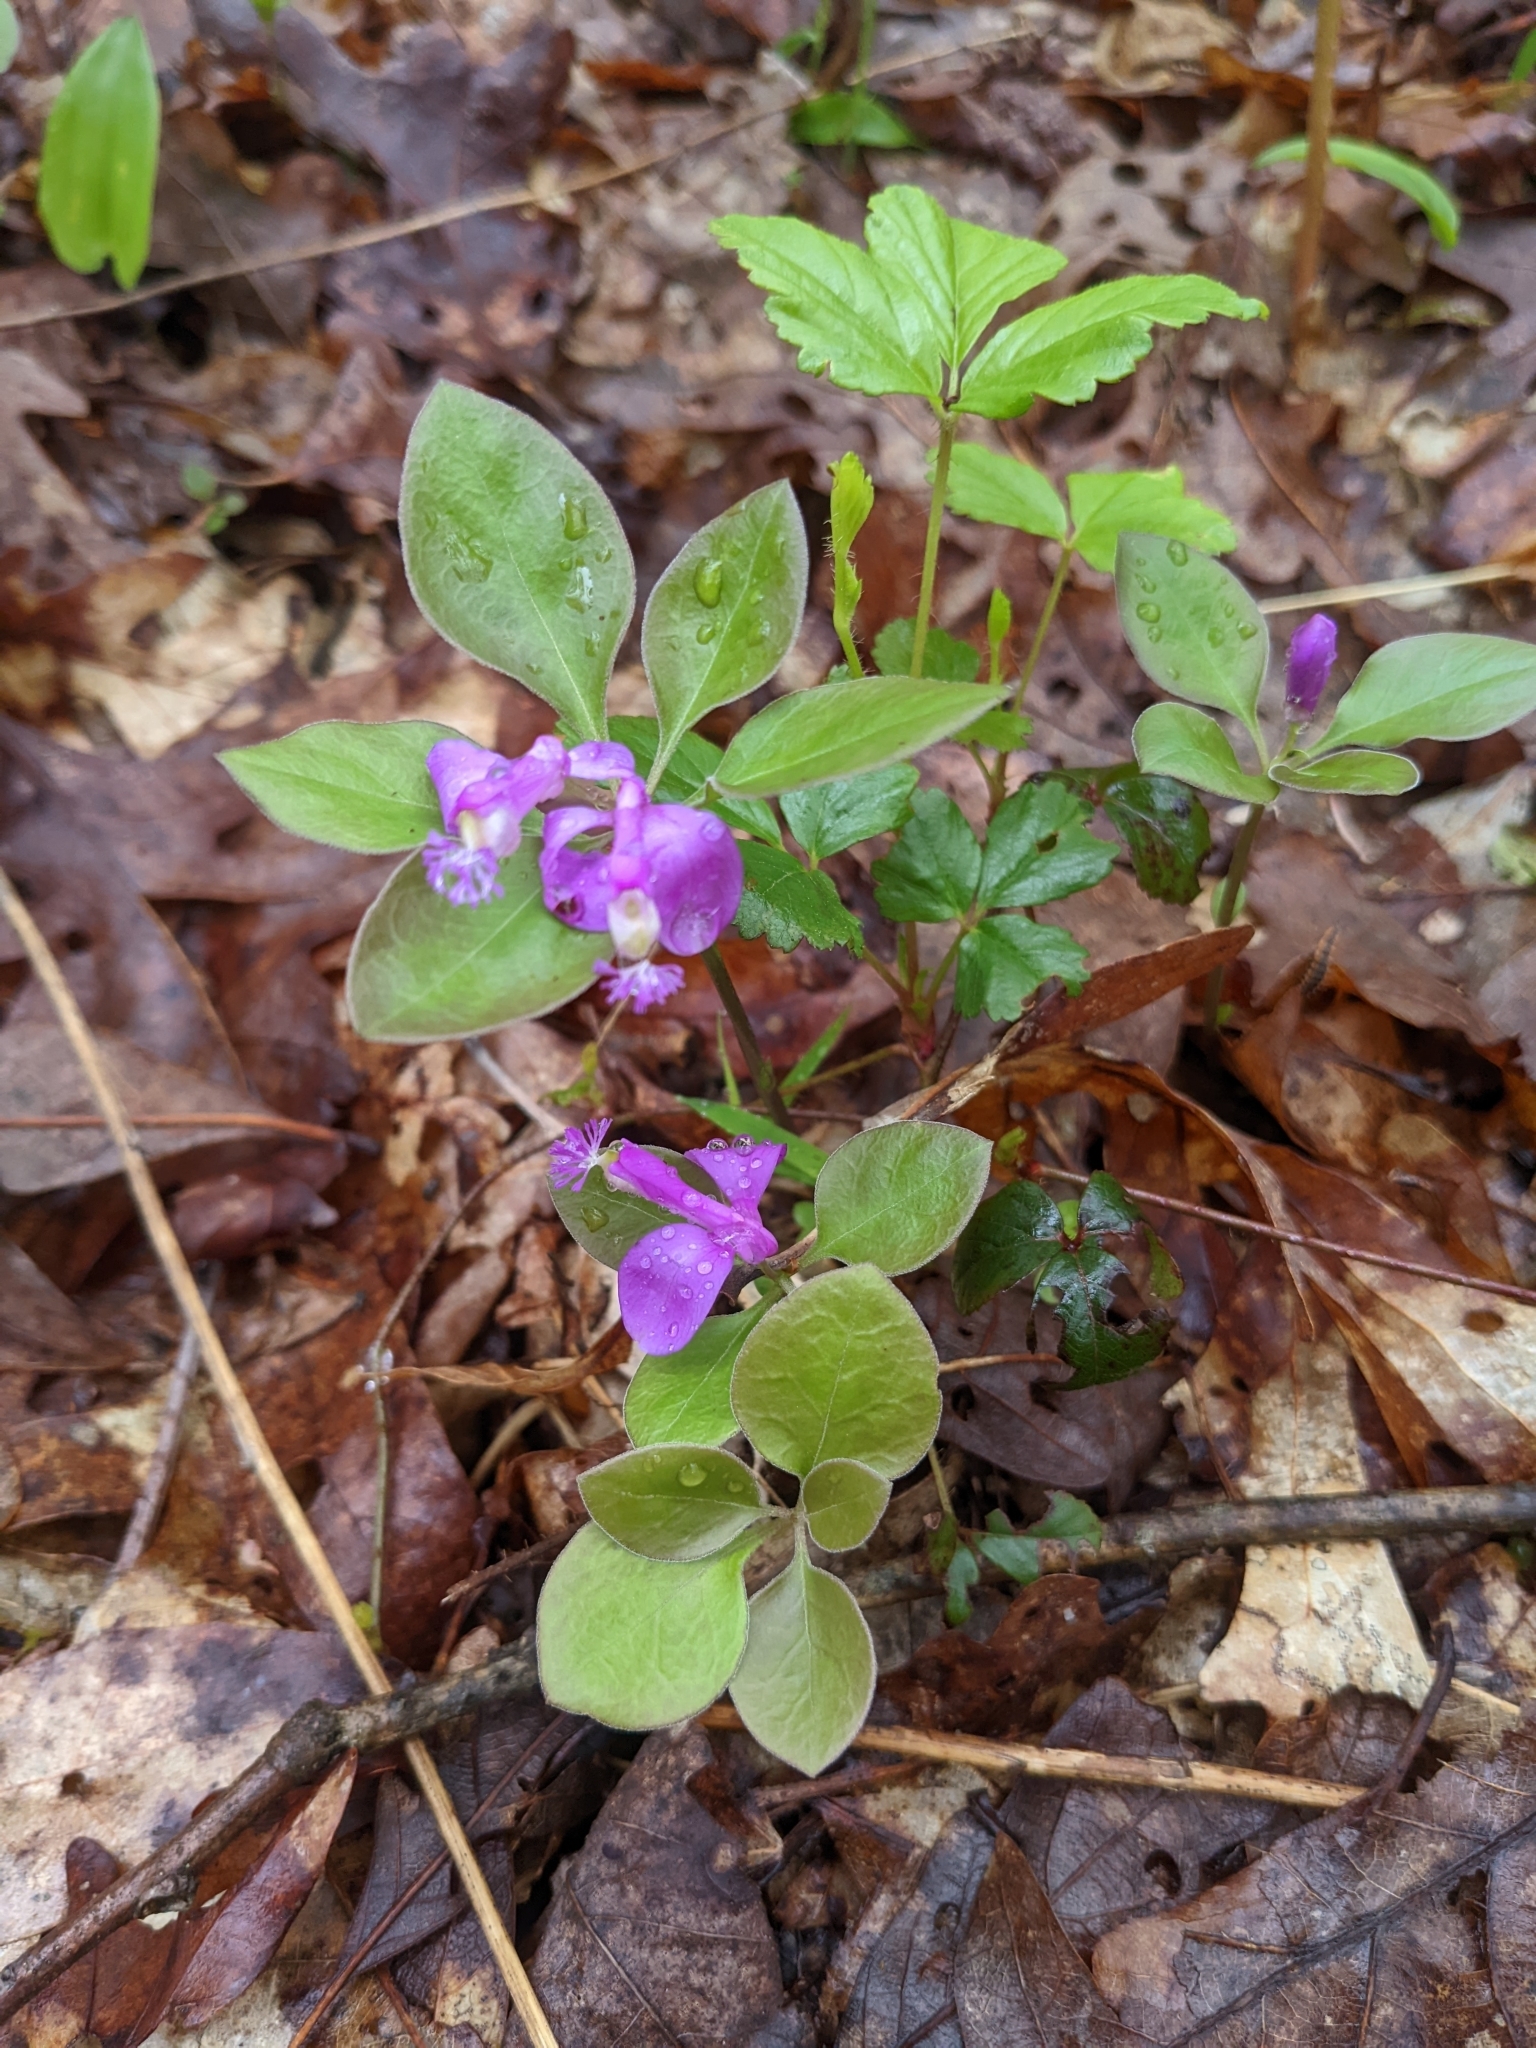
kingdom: Plantae
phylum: Tracheophyta
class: Magnoliopsida
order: Fabales
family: Polygalaceae
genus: Polygaloides
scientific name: Polygaloides paucifolia
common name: Bird-on-the-wing
